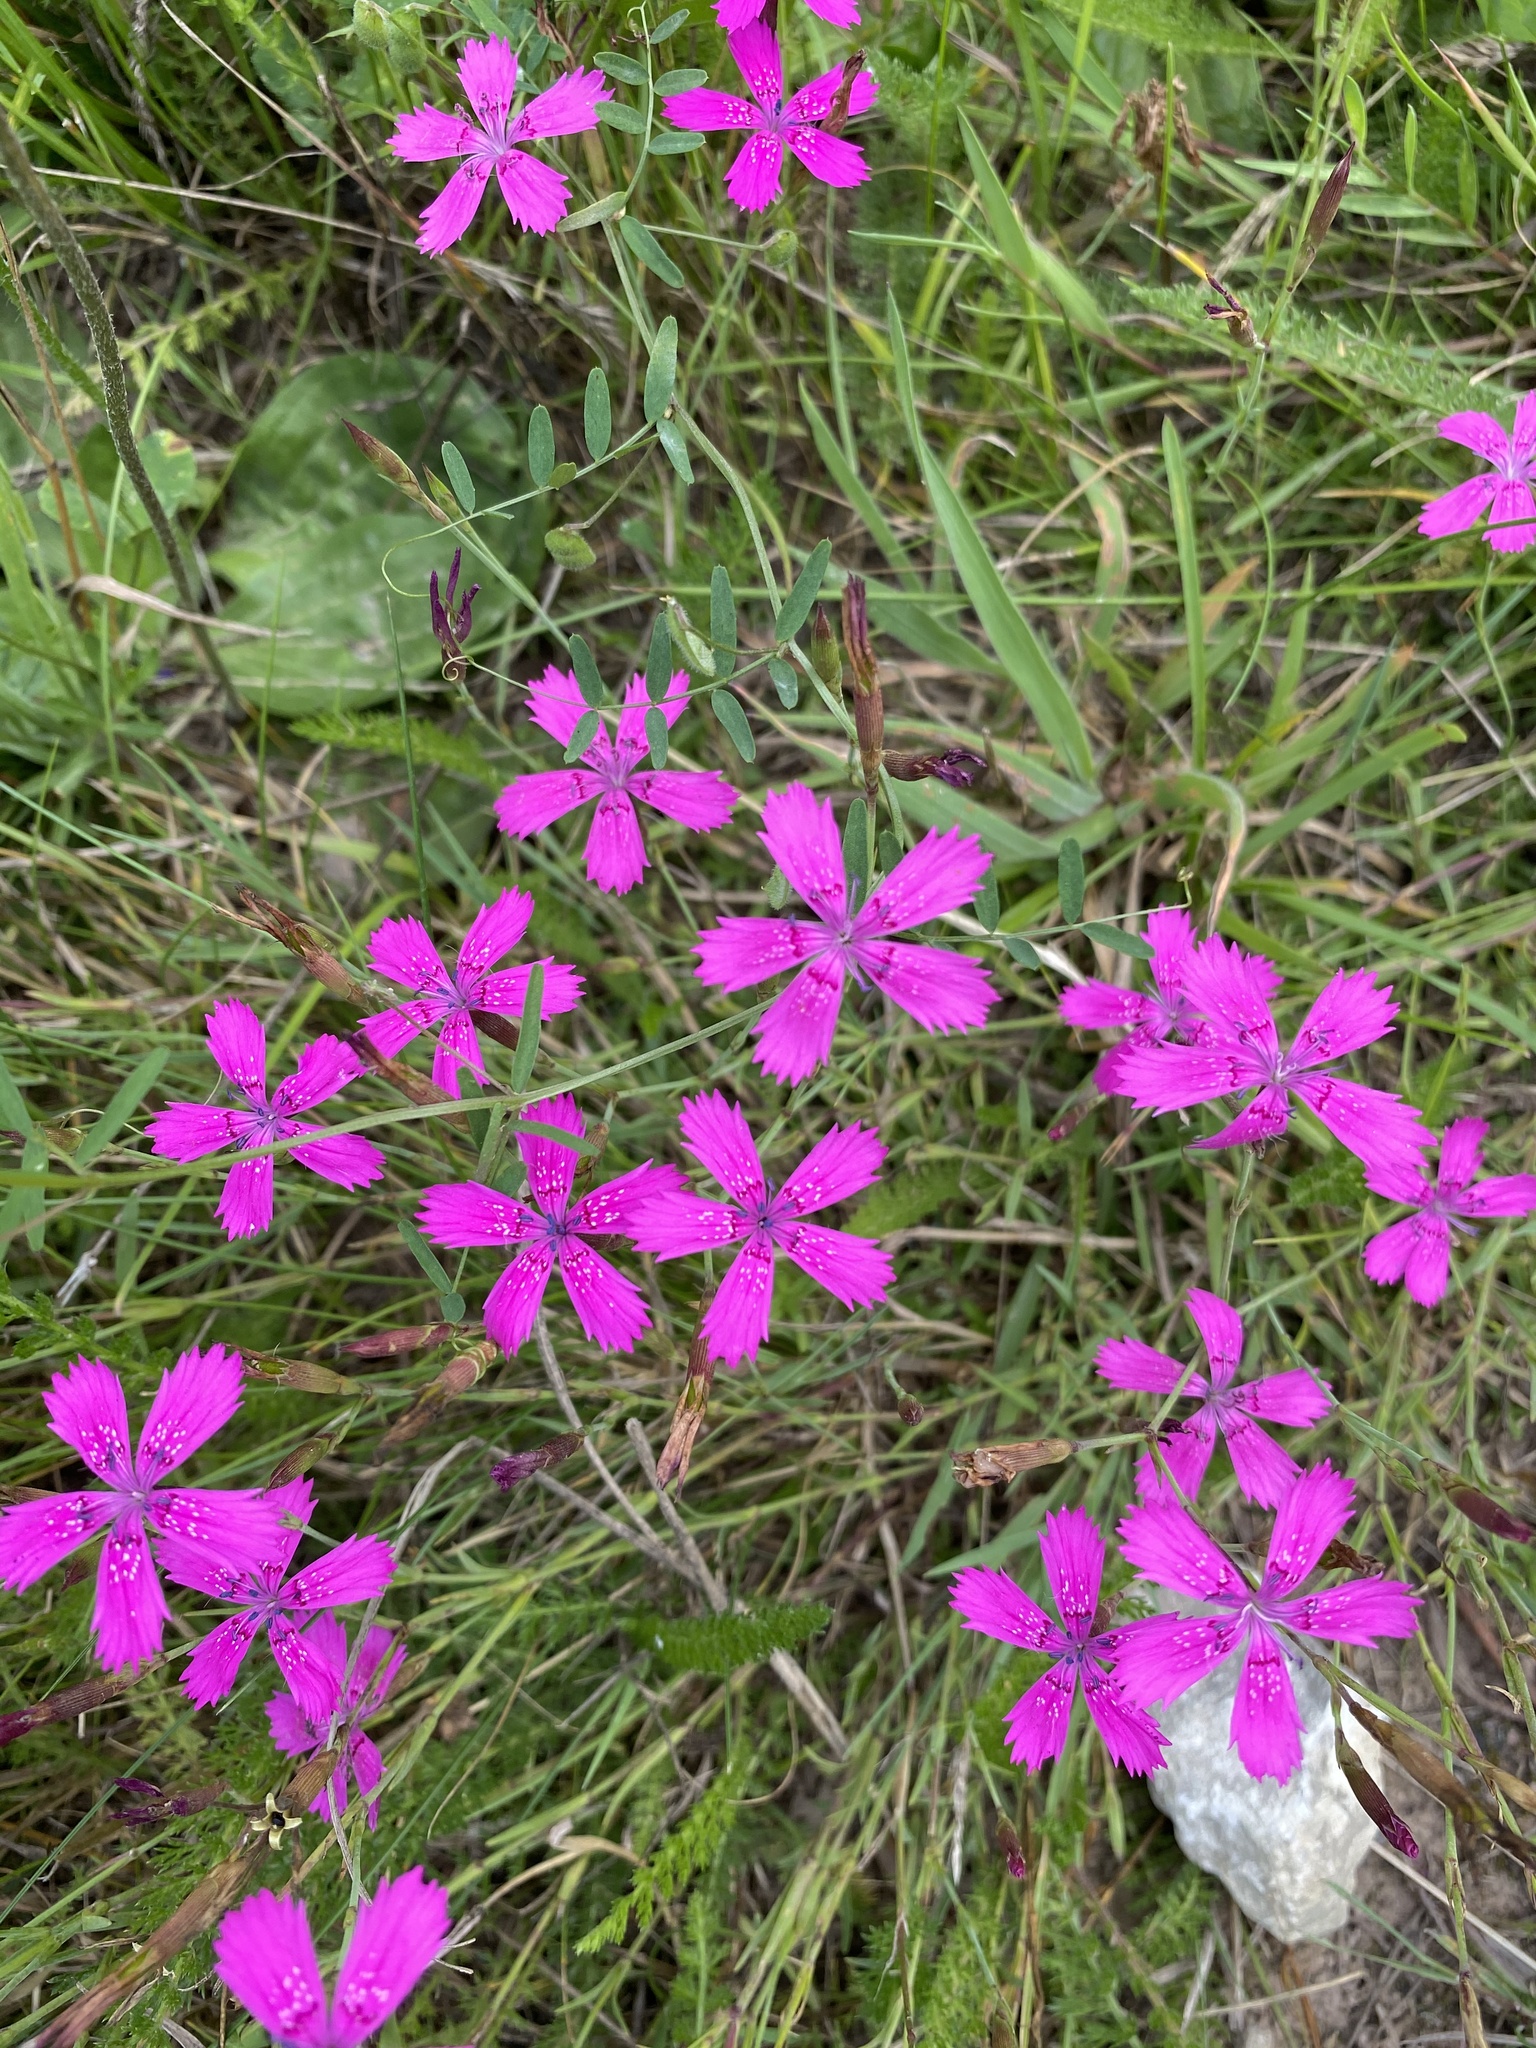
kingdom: Plantae
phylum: Tracheophyta
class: Magnoliopsida
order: Caryophyllales
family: Caryophyllaceae
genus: Dianthus
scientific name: Dianthus deltoides
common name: Maiden pink
